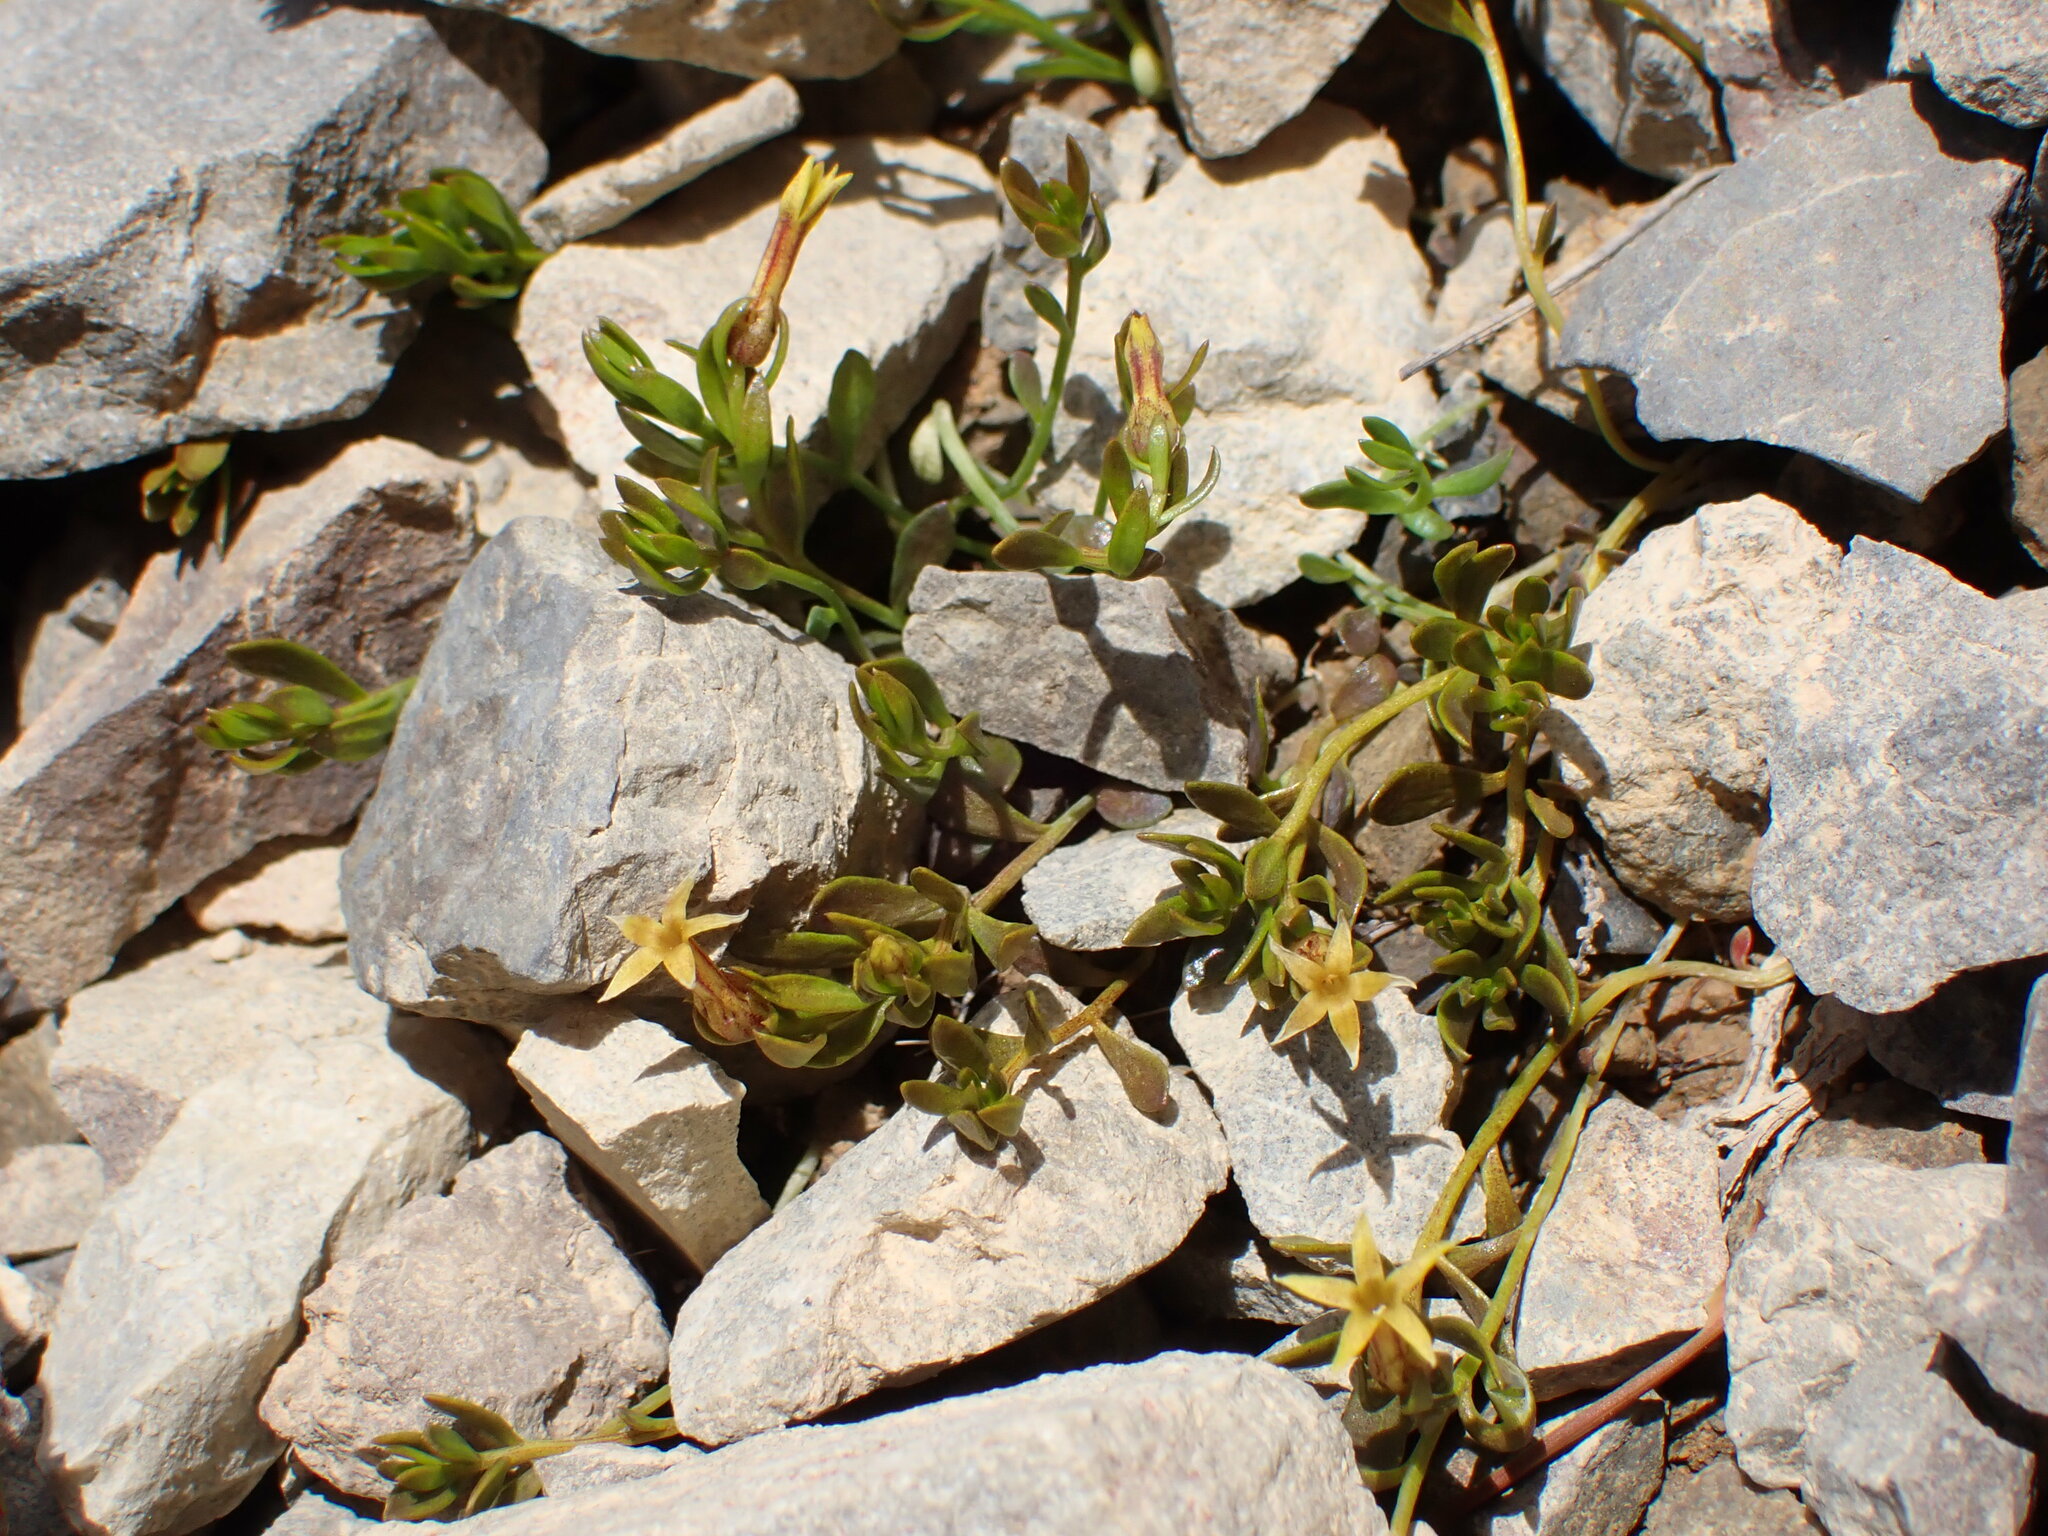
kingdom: Plantae
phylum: Tracheophyta
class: Magnoliopsida
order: Celastrales
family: Celastraceae
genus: Stackhousia
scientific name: Stackhousia minima
